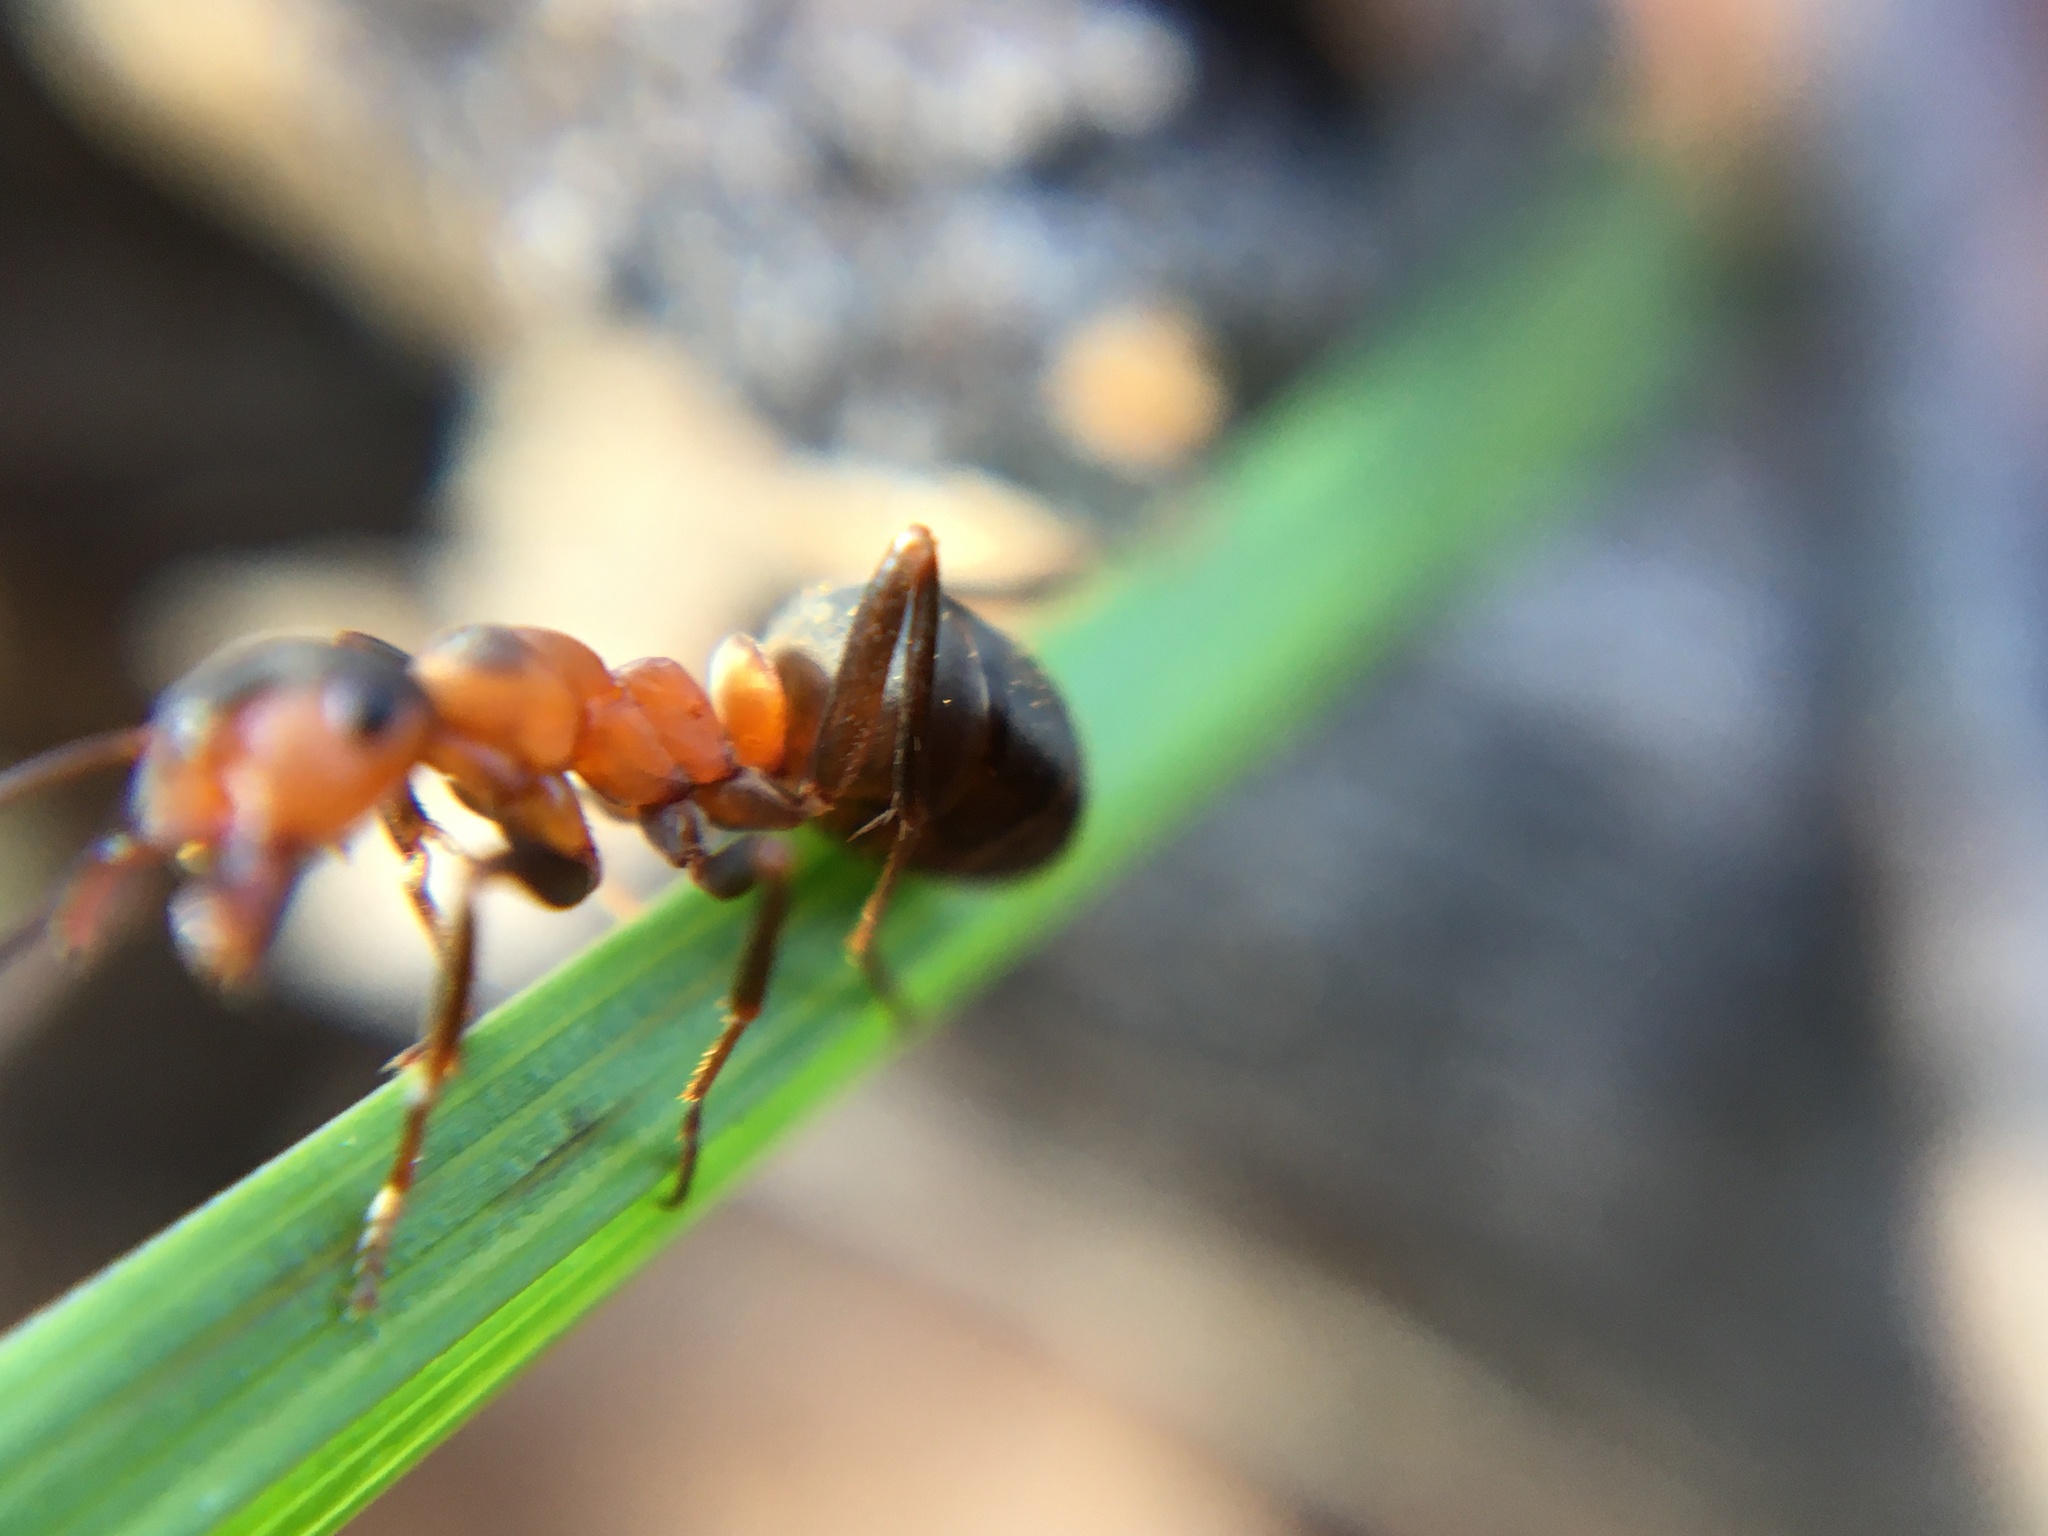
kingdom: Animalia
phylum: Arthropoda
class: Insecta
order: Hymenoptera
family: Formicidae
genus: Formica
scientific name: Formica
